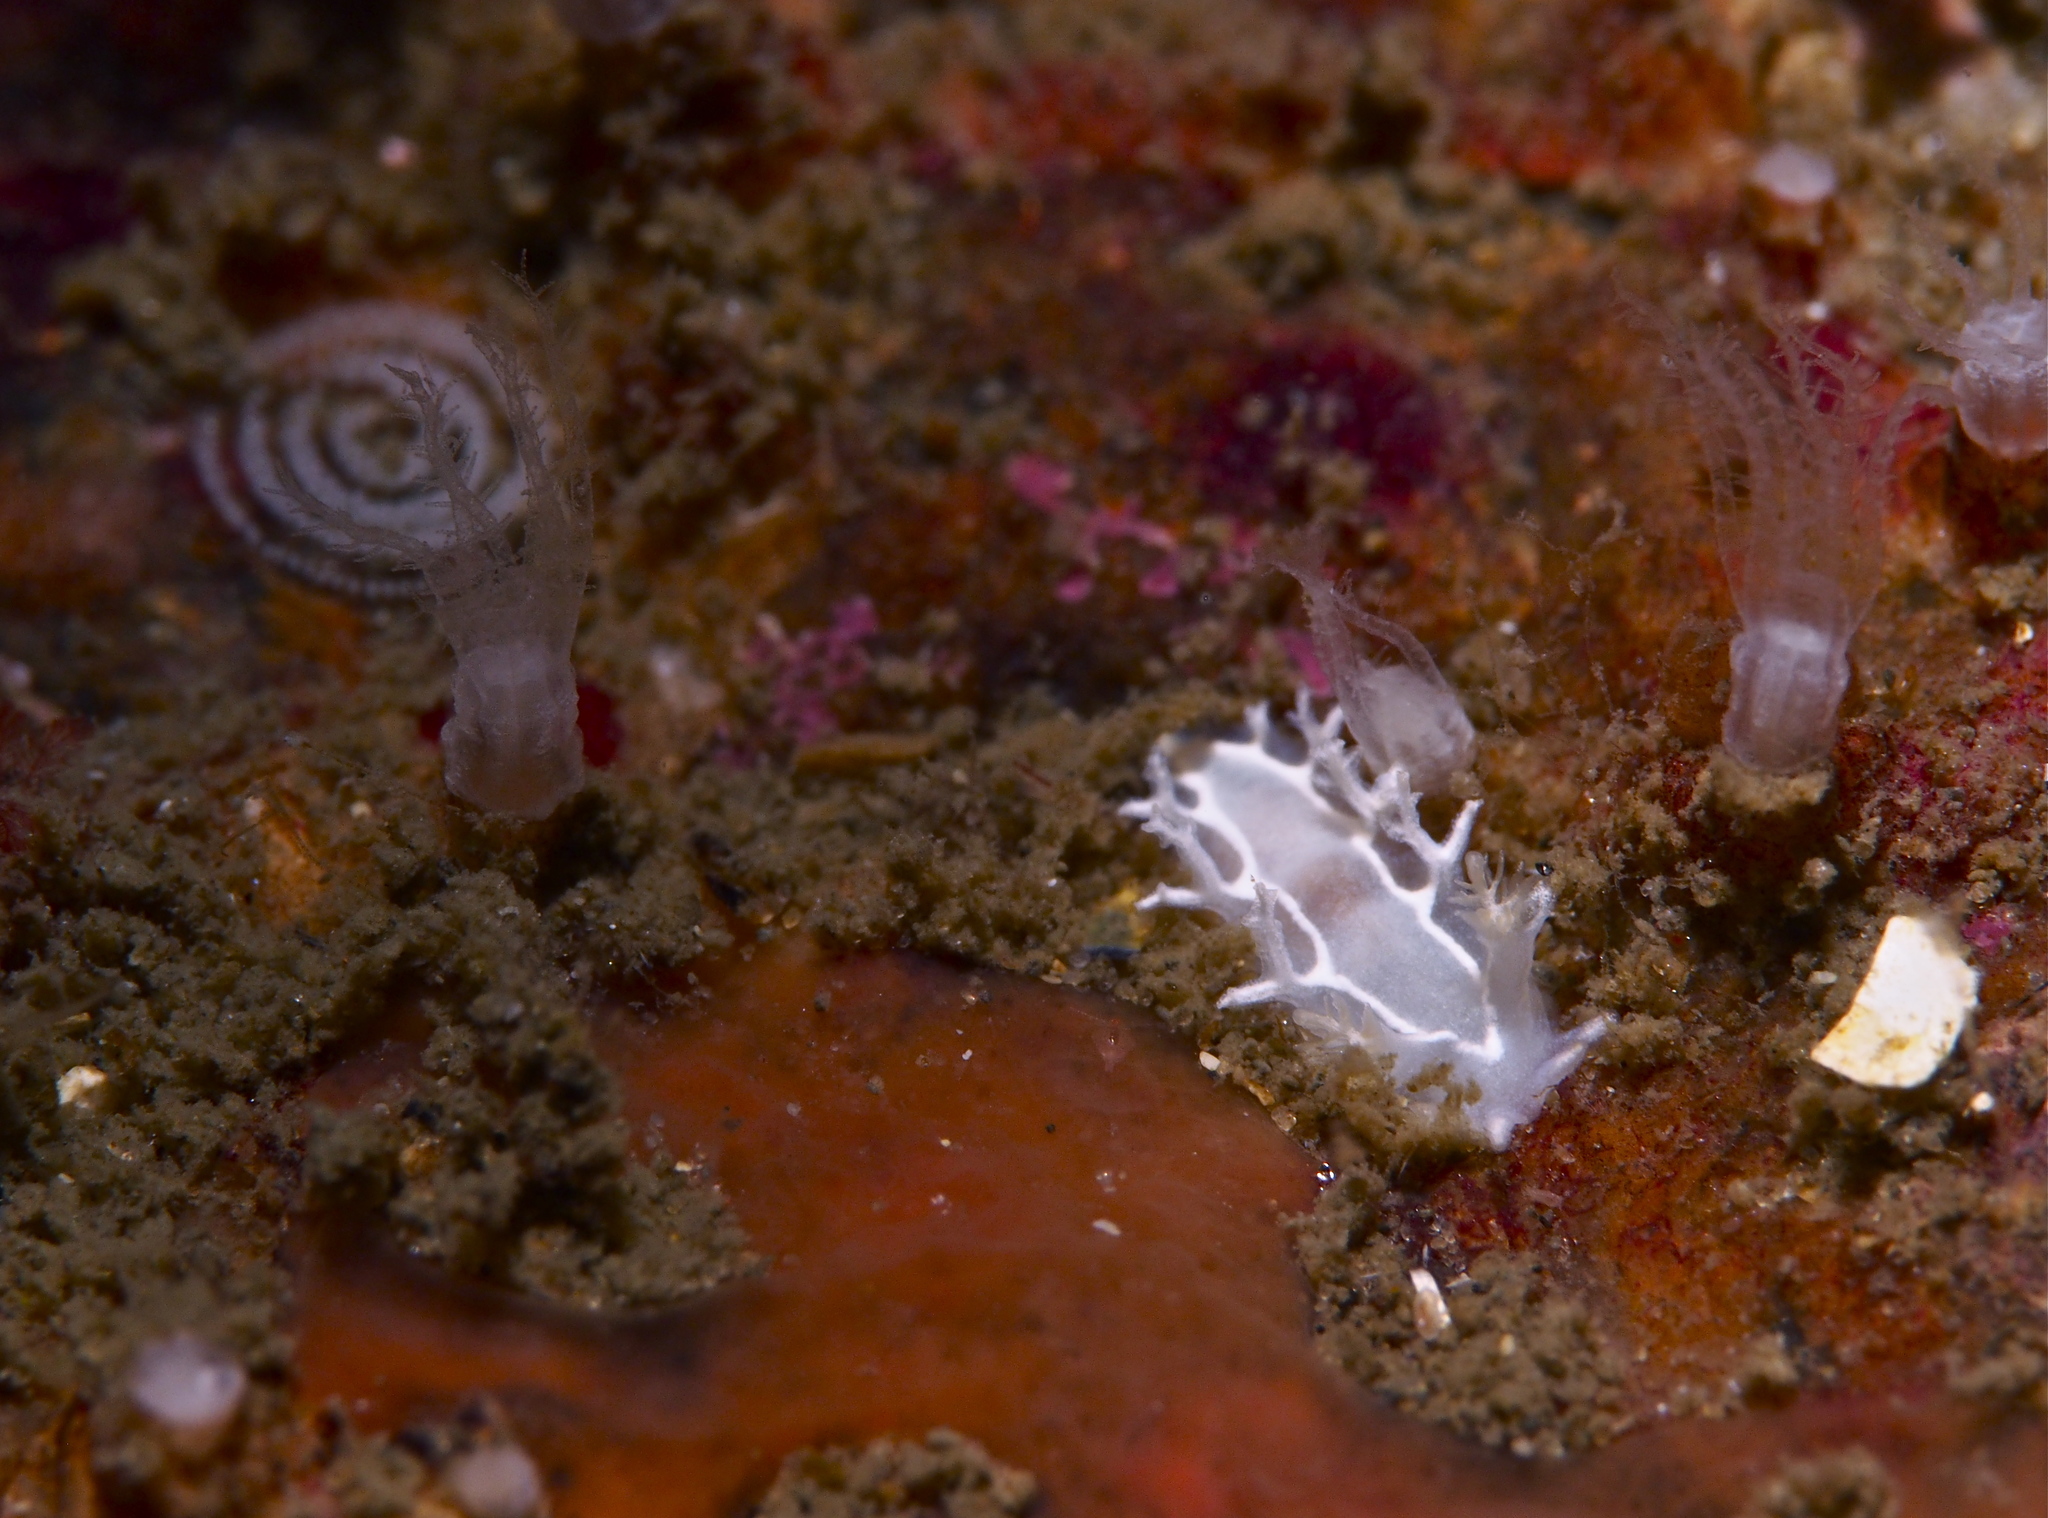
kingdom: Animalia
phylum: Mollusca
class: Gastropoda
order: Nudibranchia
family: Tritoniidae
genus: Duvaucelia
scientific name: Duvaucelia lineata
